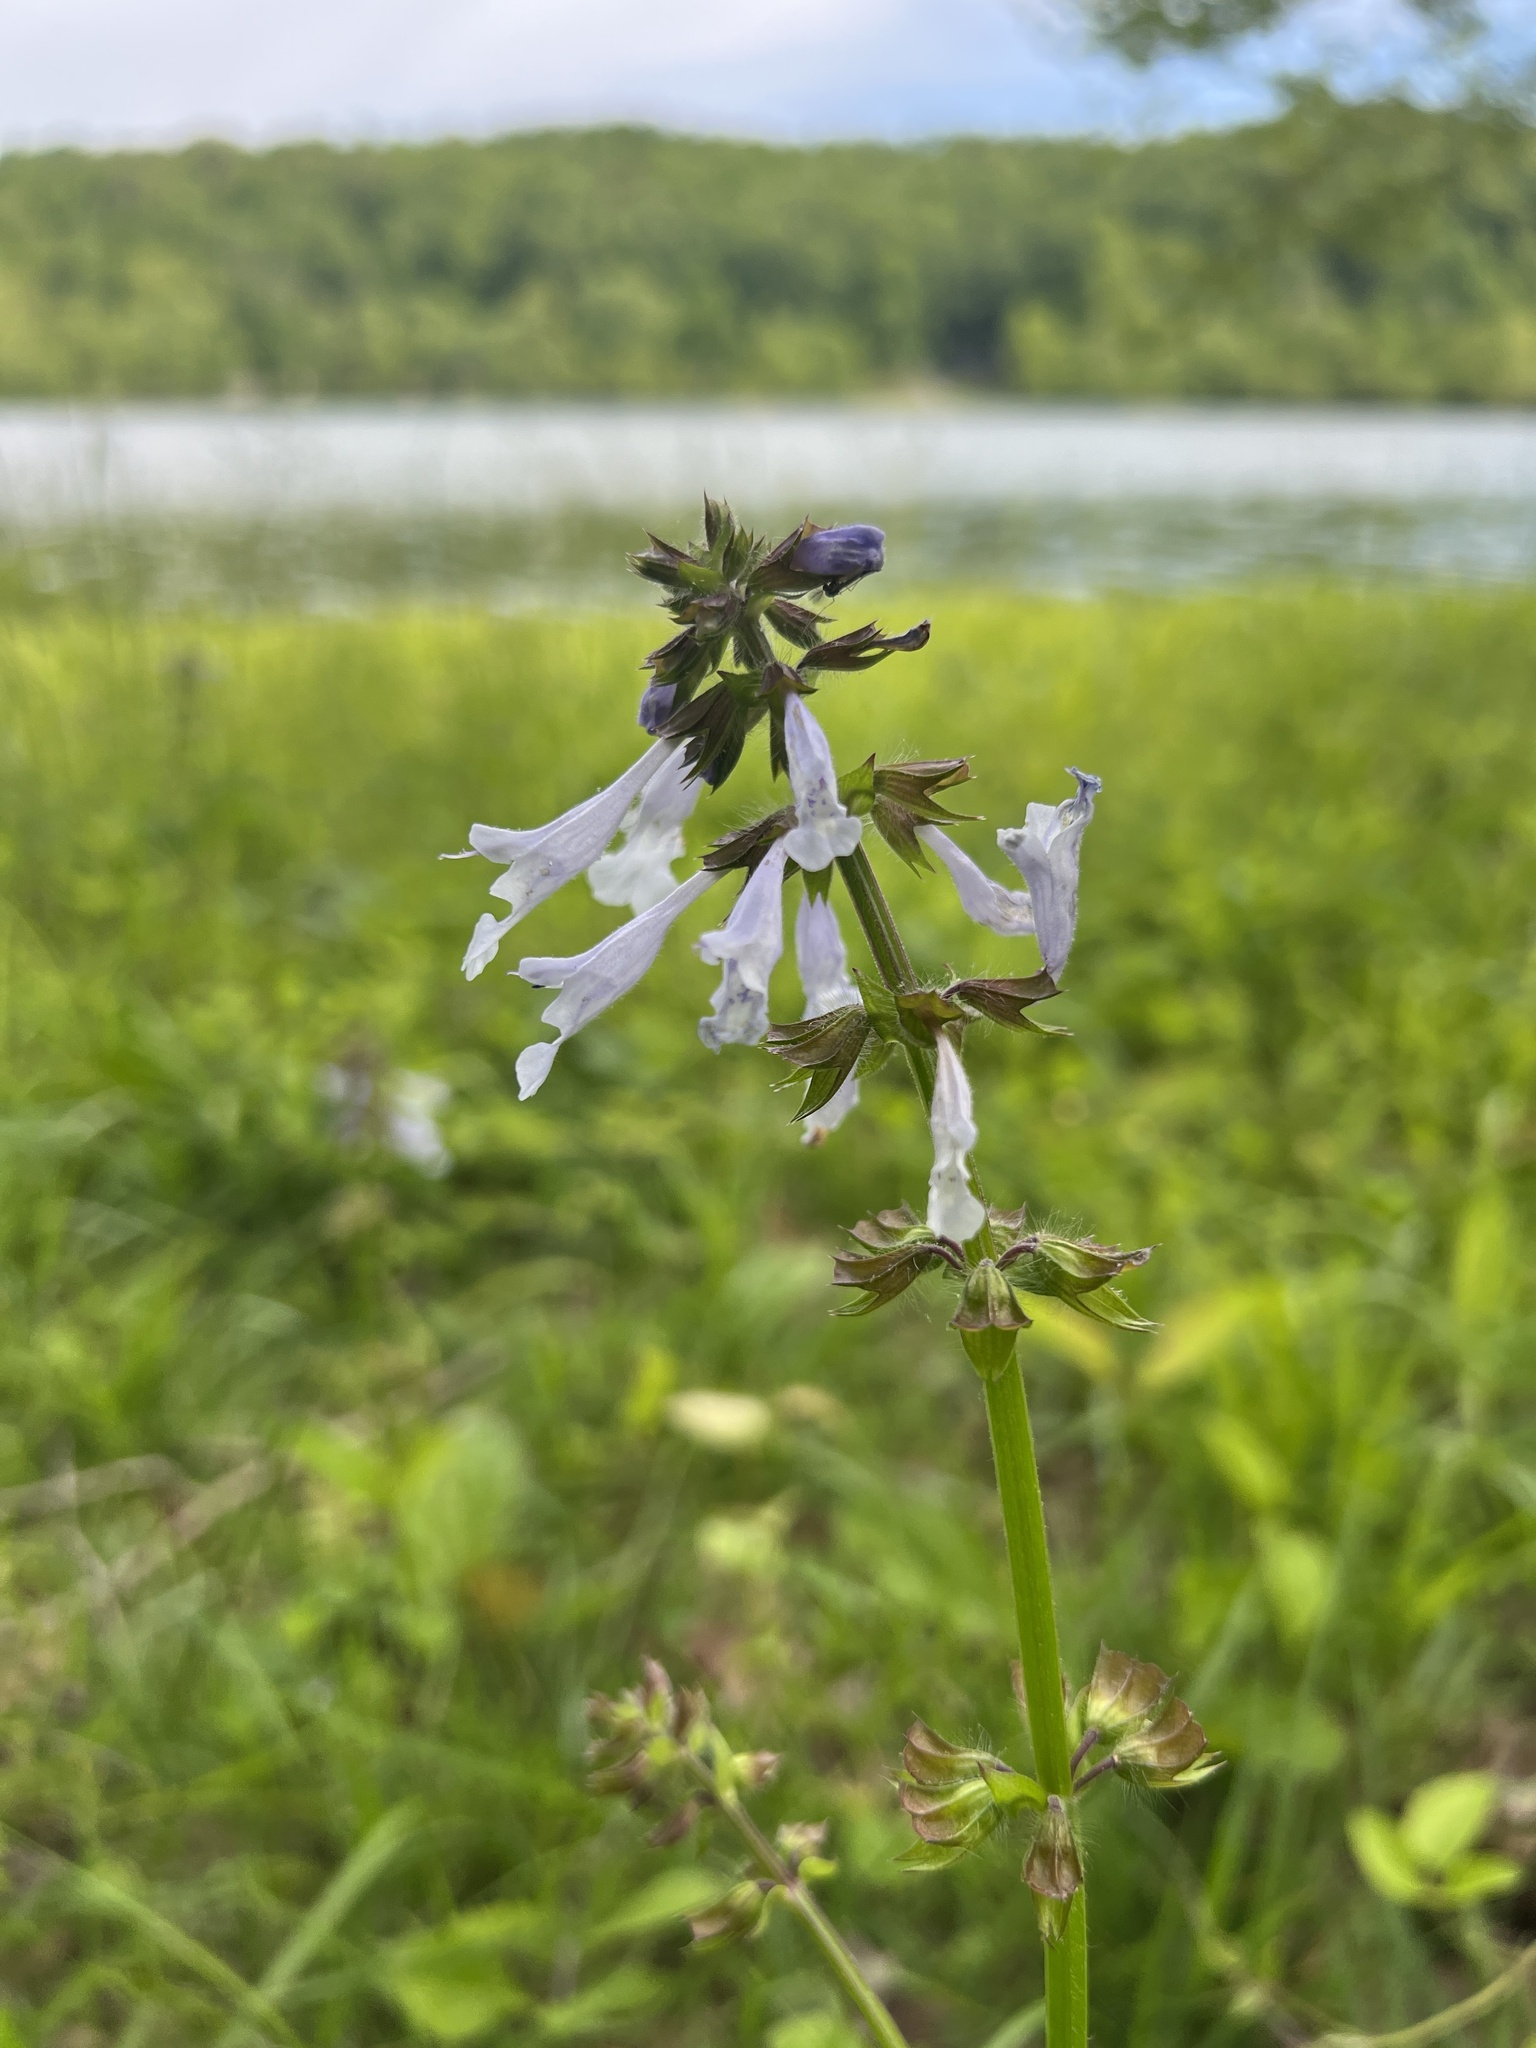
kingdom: Plantae
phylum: Tracheophyta
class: Magnoliopsida
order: Lamiales
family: Lamiaceae
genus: Salvia
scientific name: Salvia lyrata
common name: Cancerweed
